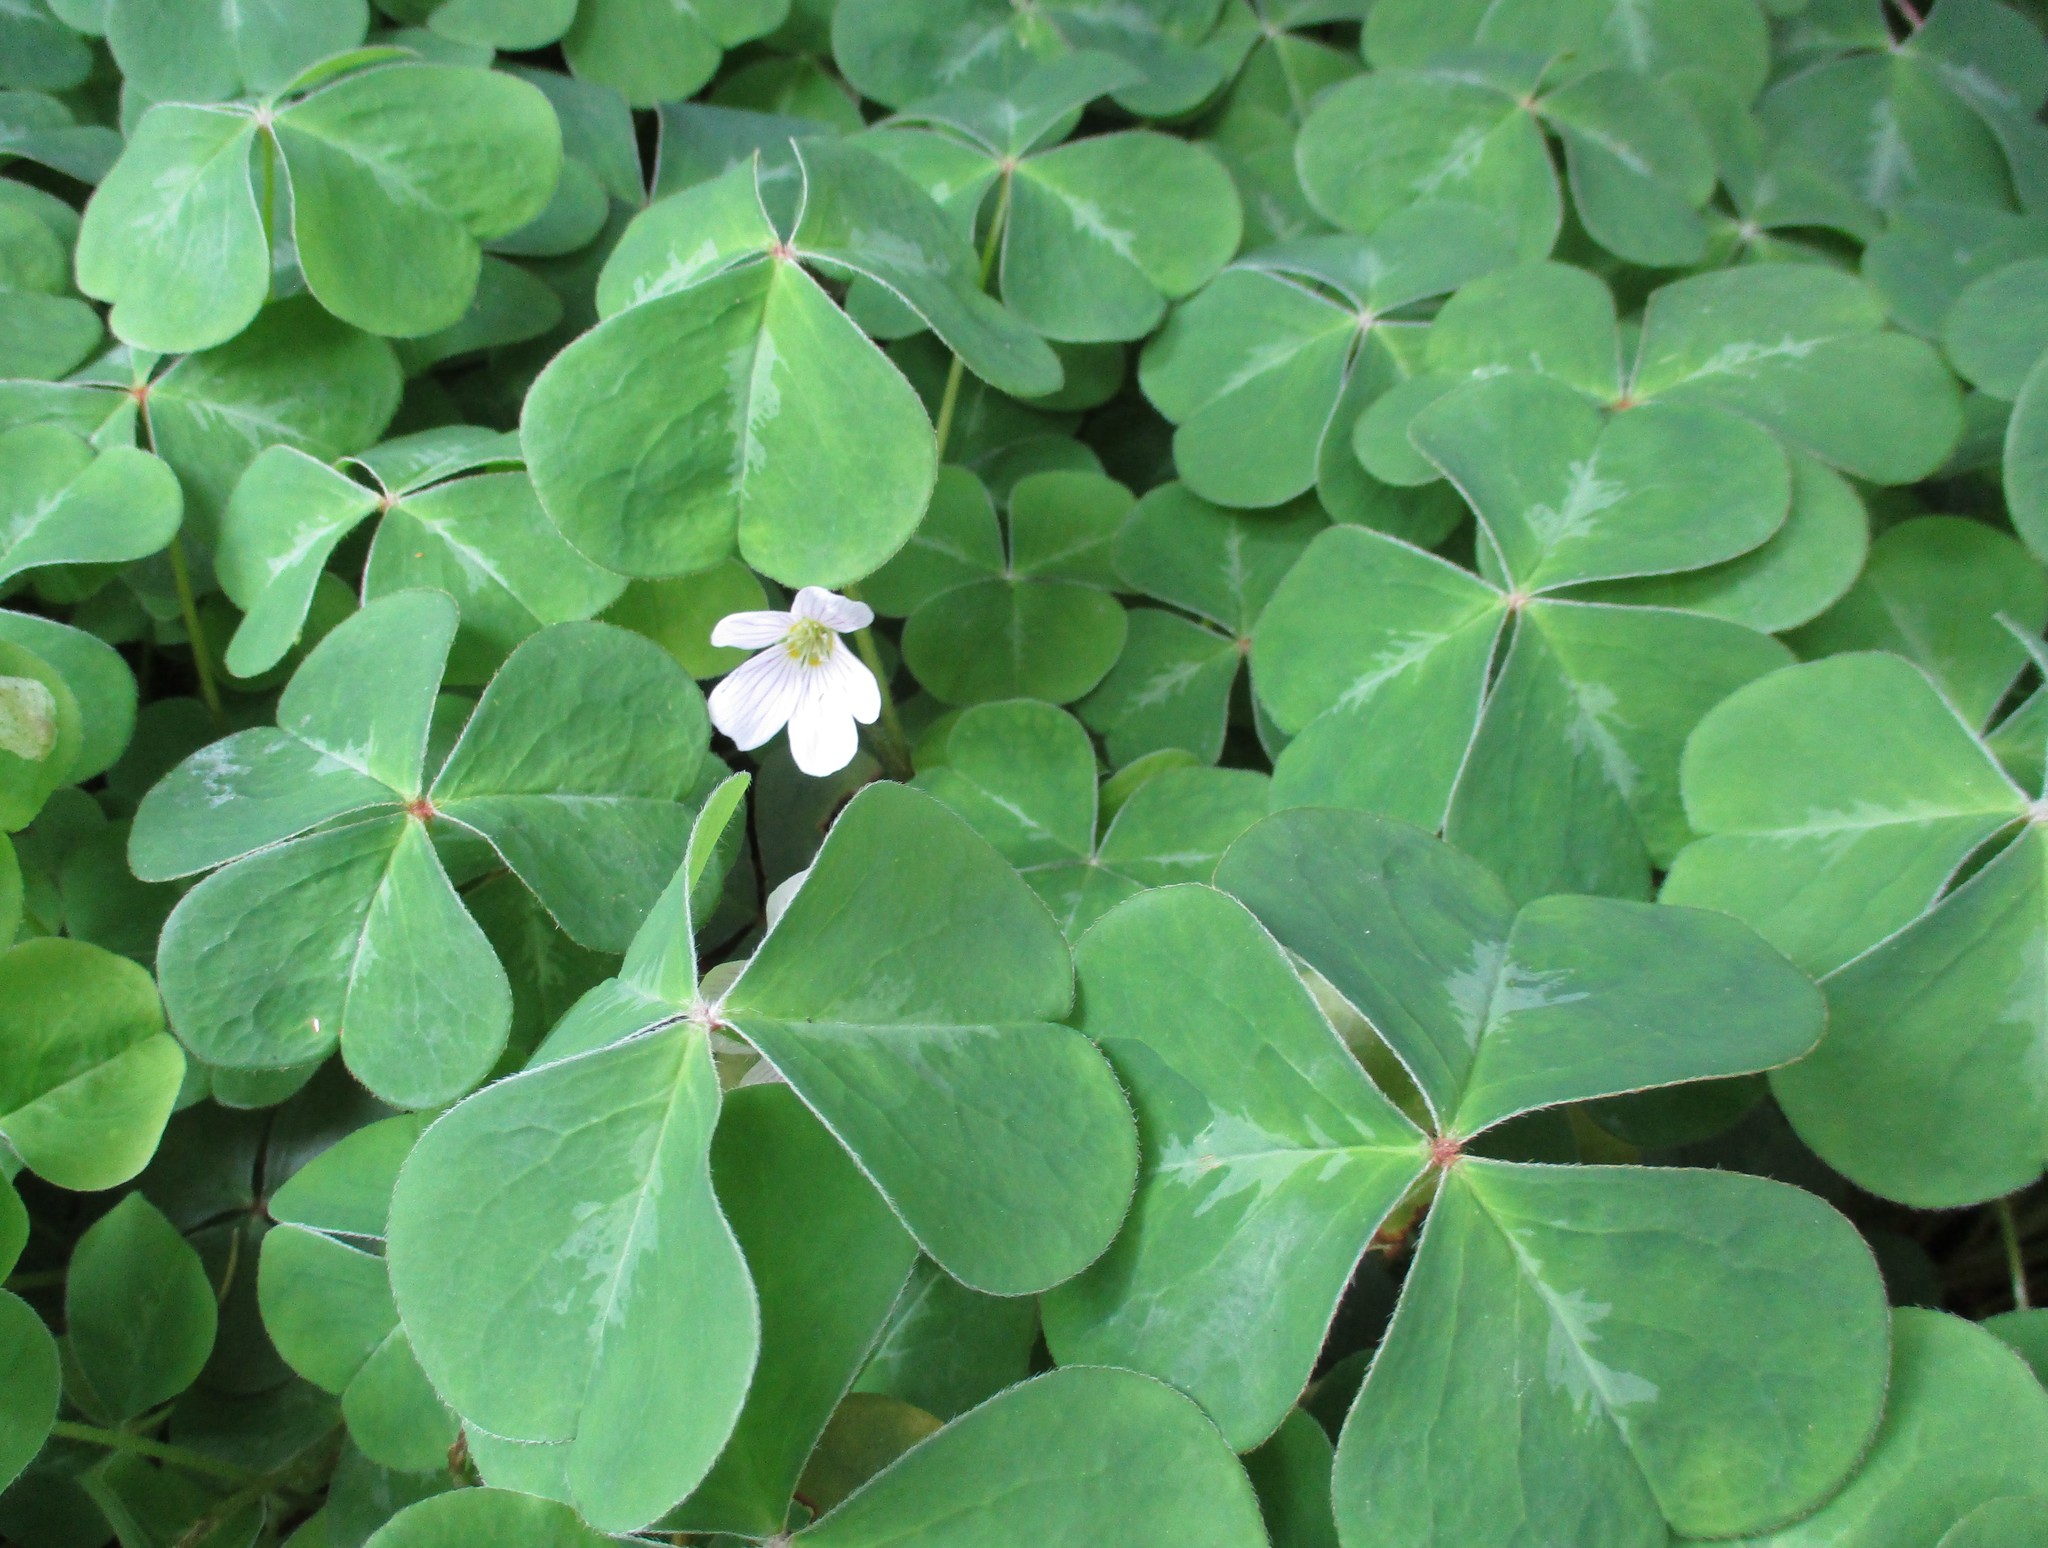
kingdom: Plantae
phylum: Tracheophyta
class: Magnoliopsida
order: Oxalidales
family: Oxalidaceae
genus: Oxalis
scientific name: Oxalis oregana
